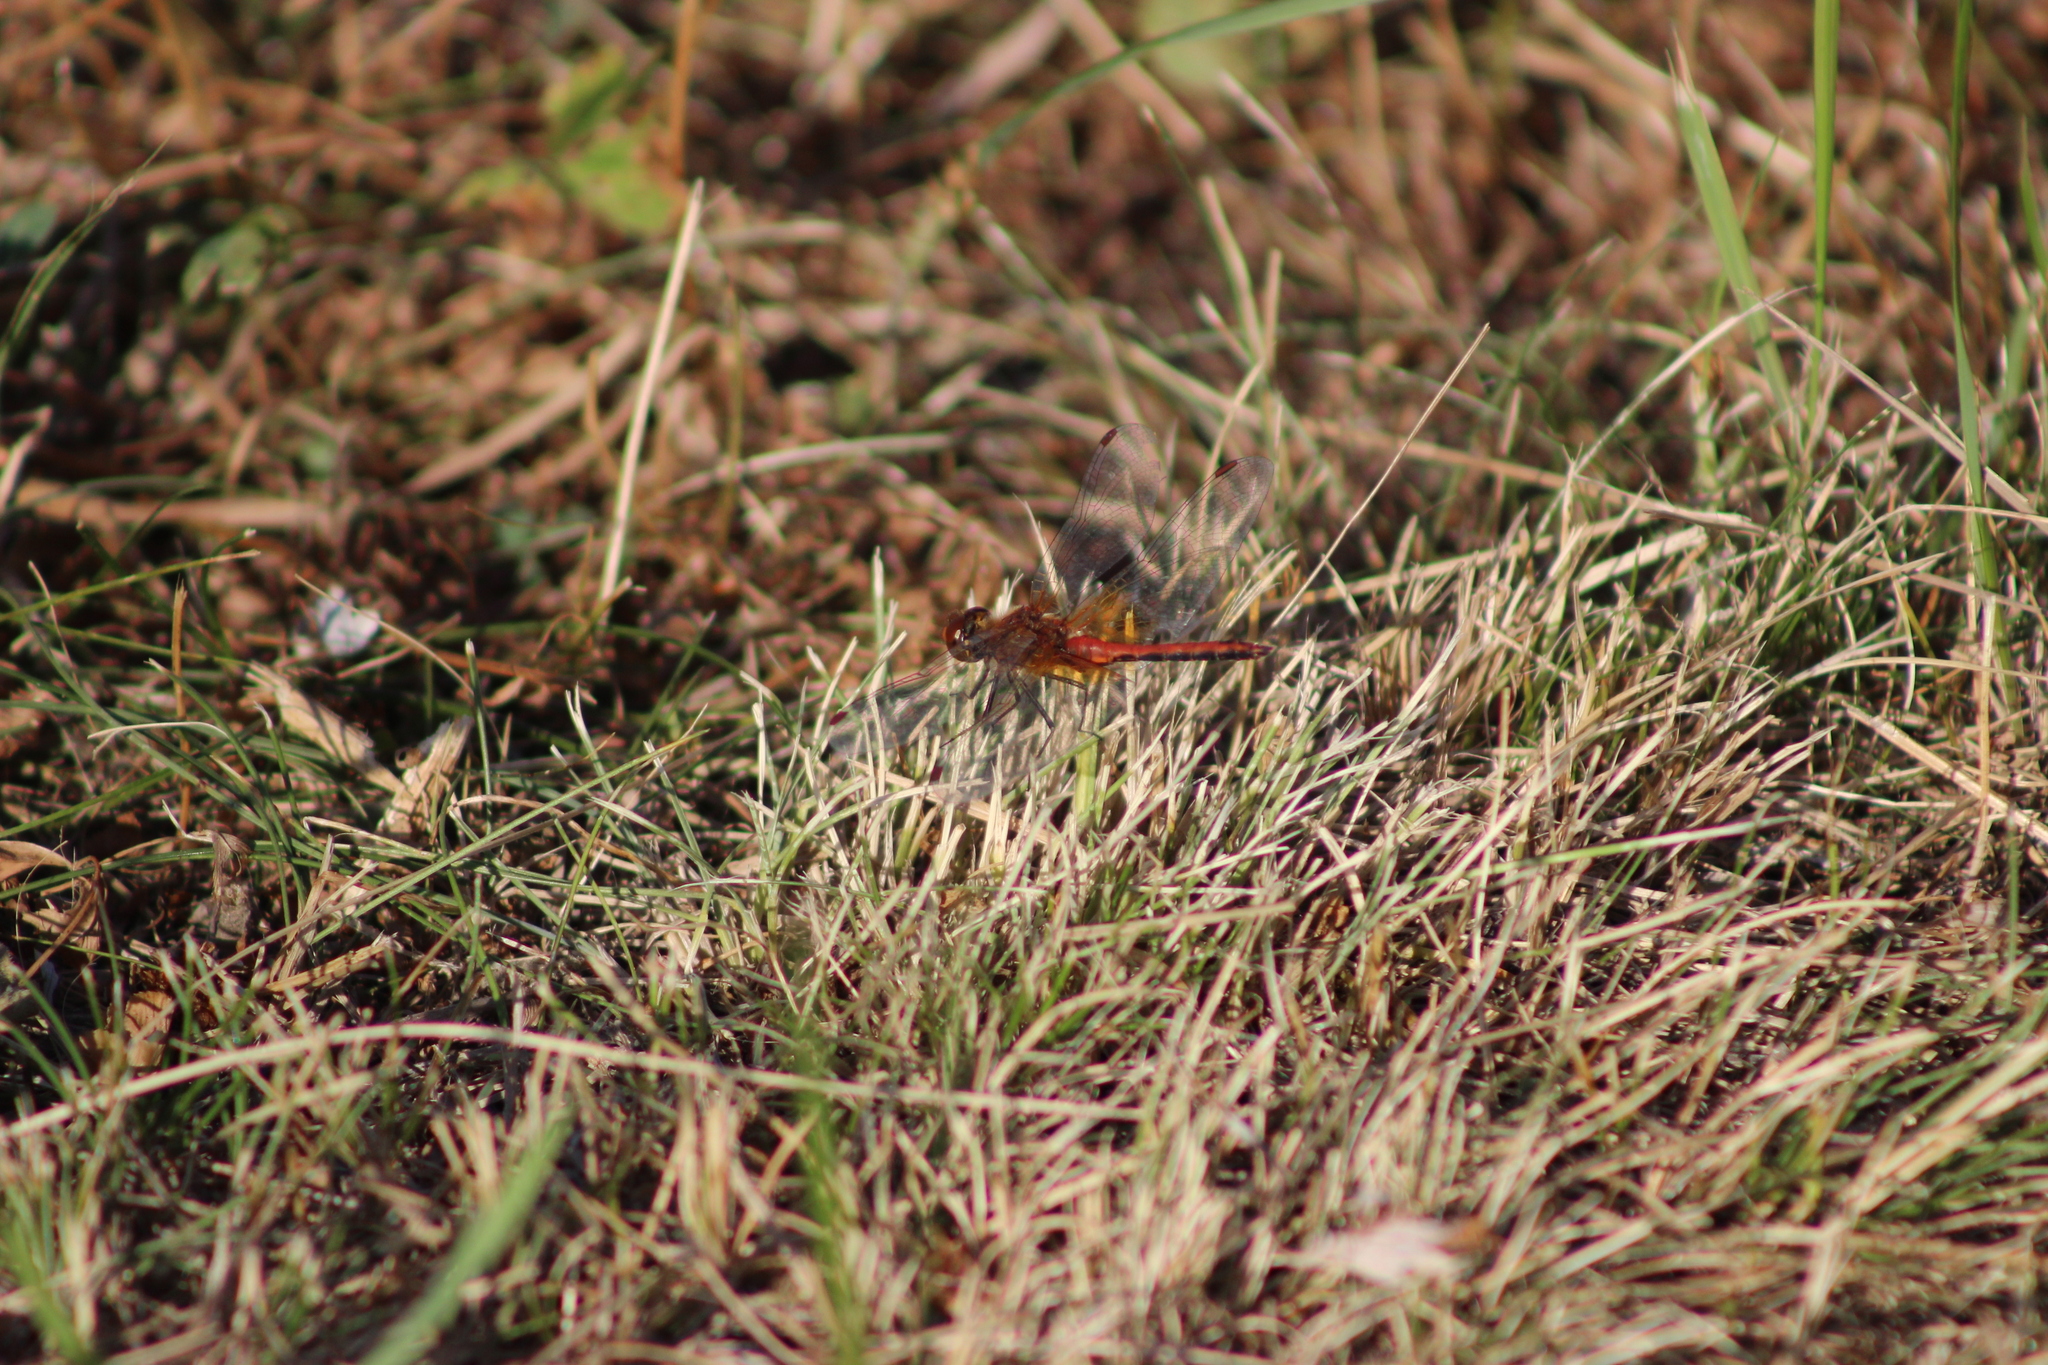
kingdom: Animalia
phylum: Arthropoda
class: Insecta
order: Odonata
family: Libellulidae
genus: Sympetrum
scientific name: Sympetrum flaveolum
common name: Yellow-winged darter
